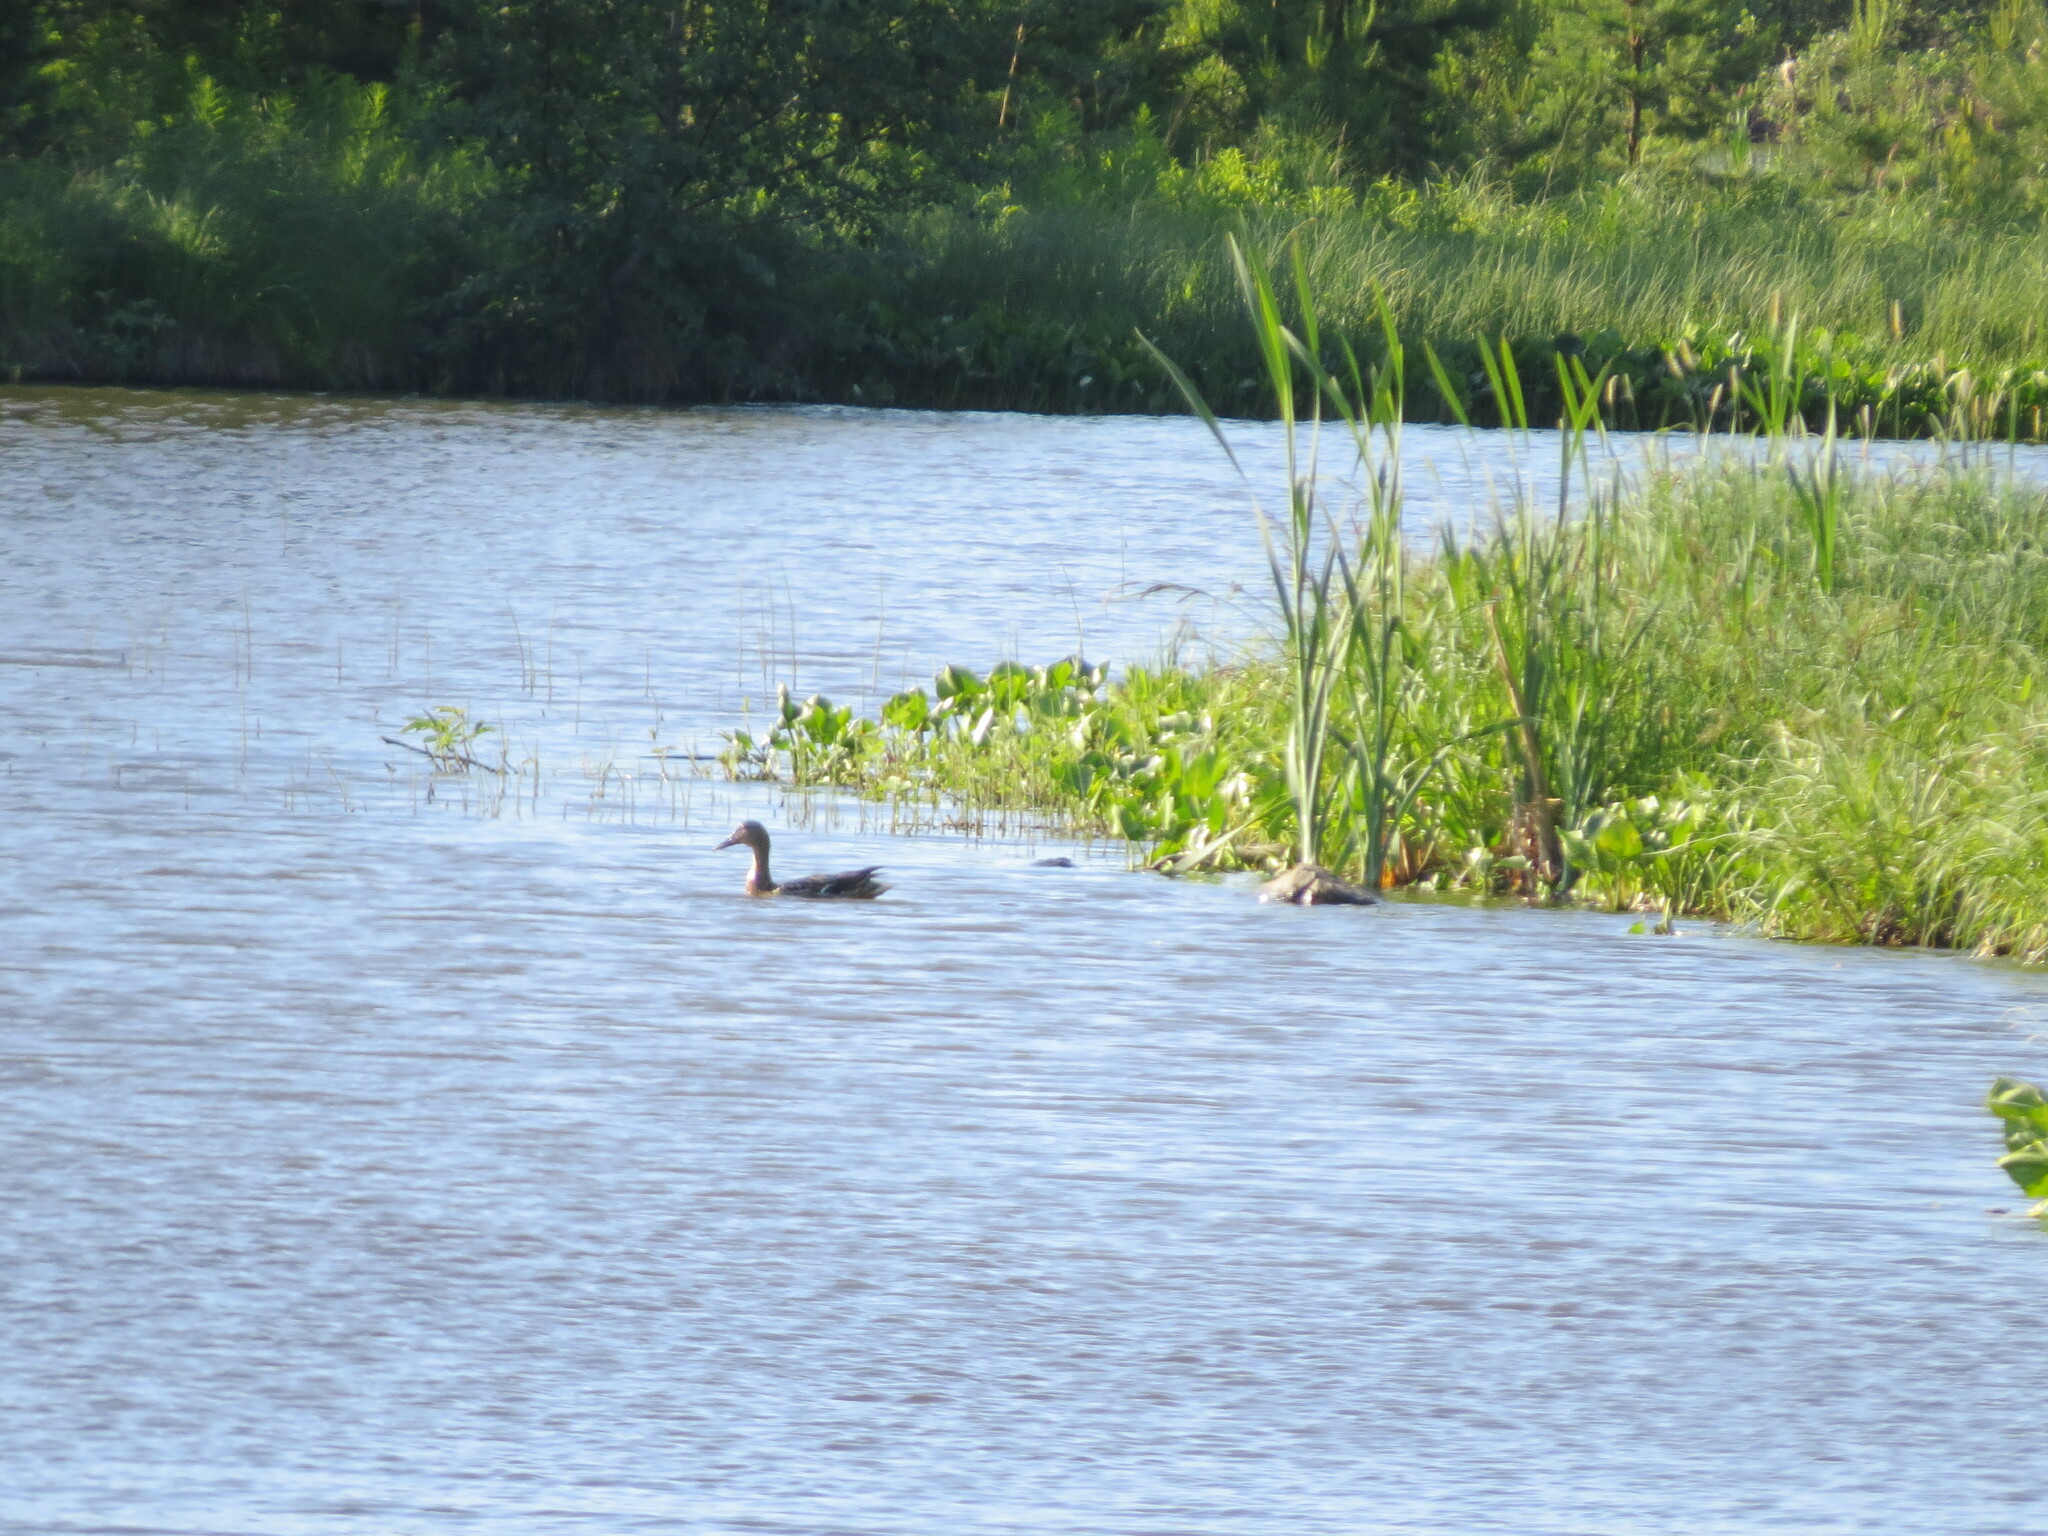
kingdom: Animalia
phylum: Chordata
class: Aves
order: Anseriformes
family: Anatidae
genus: Anas
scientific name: Anas platyrhynchos
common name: Mallard
